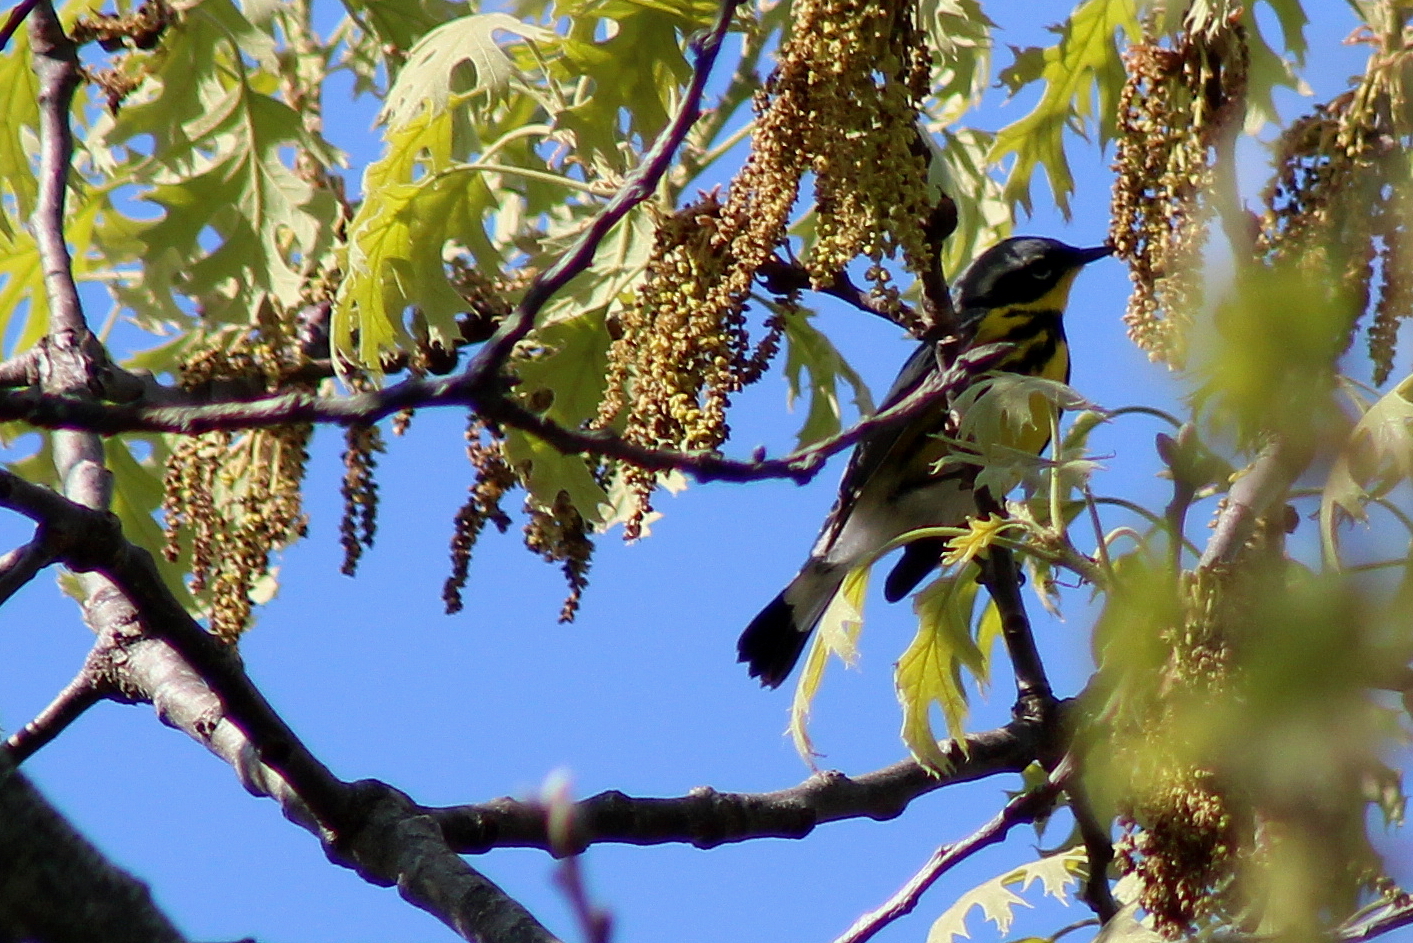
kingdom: Animalia
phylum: Chordata
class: Aves
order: Passeriformes
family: Parulidae
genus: Setophaga
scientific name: Setophaga magnolia
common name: Magnolia warbler
